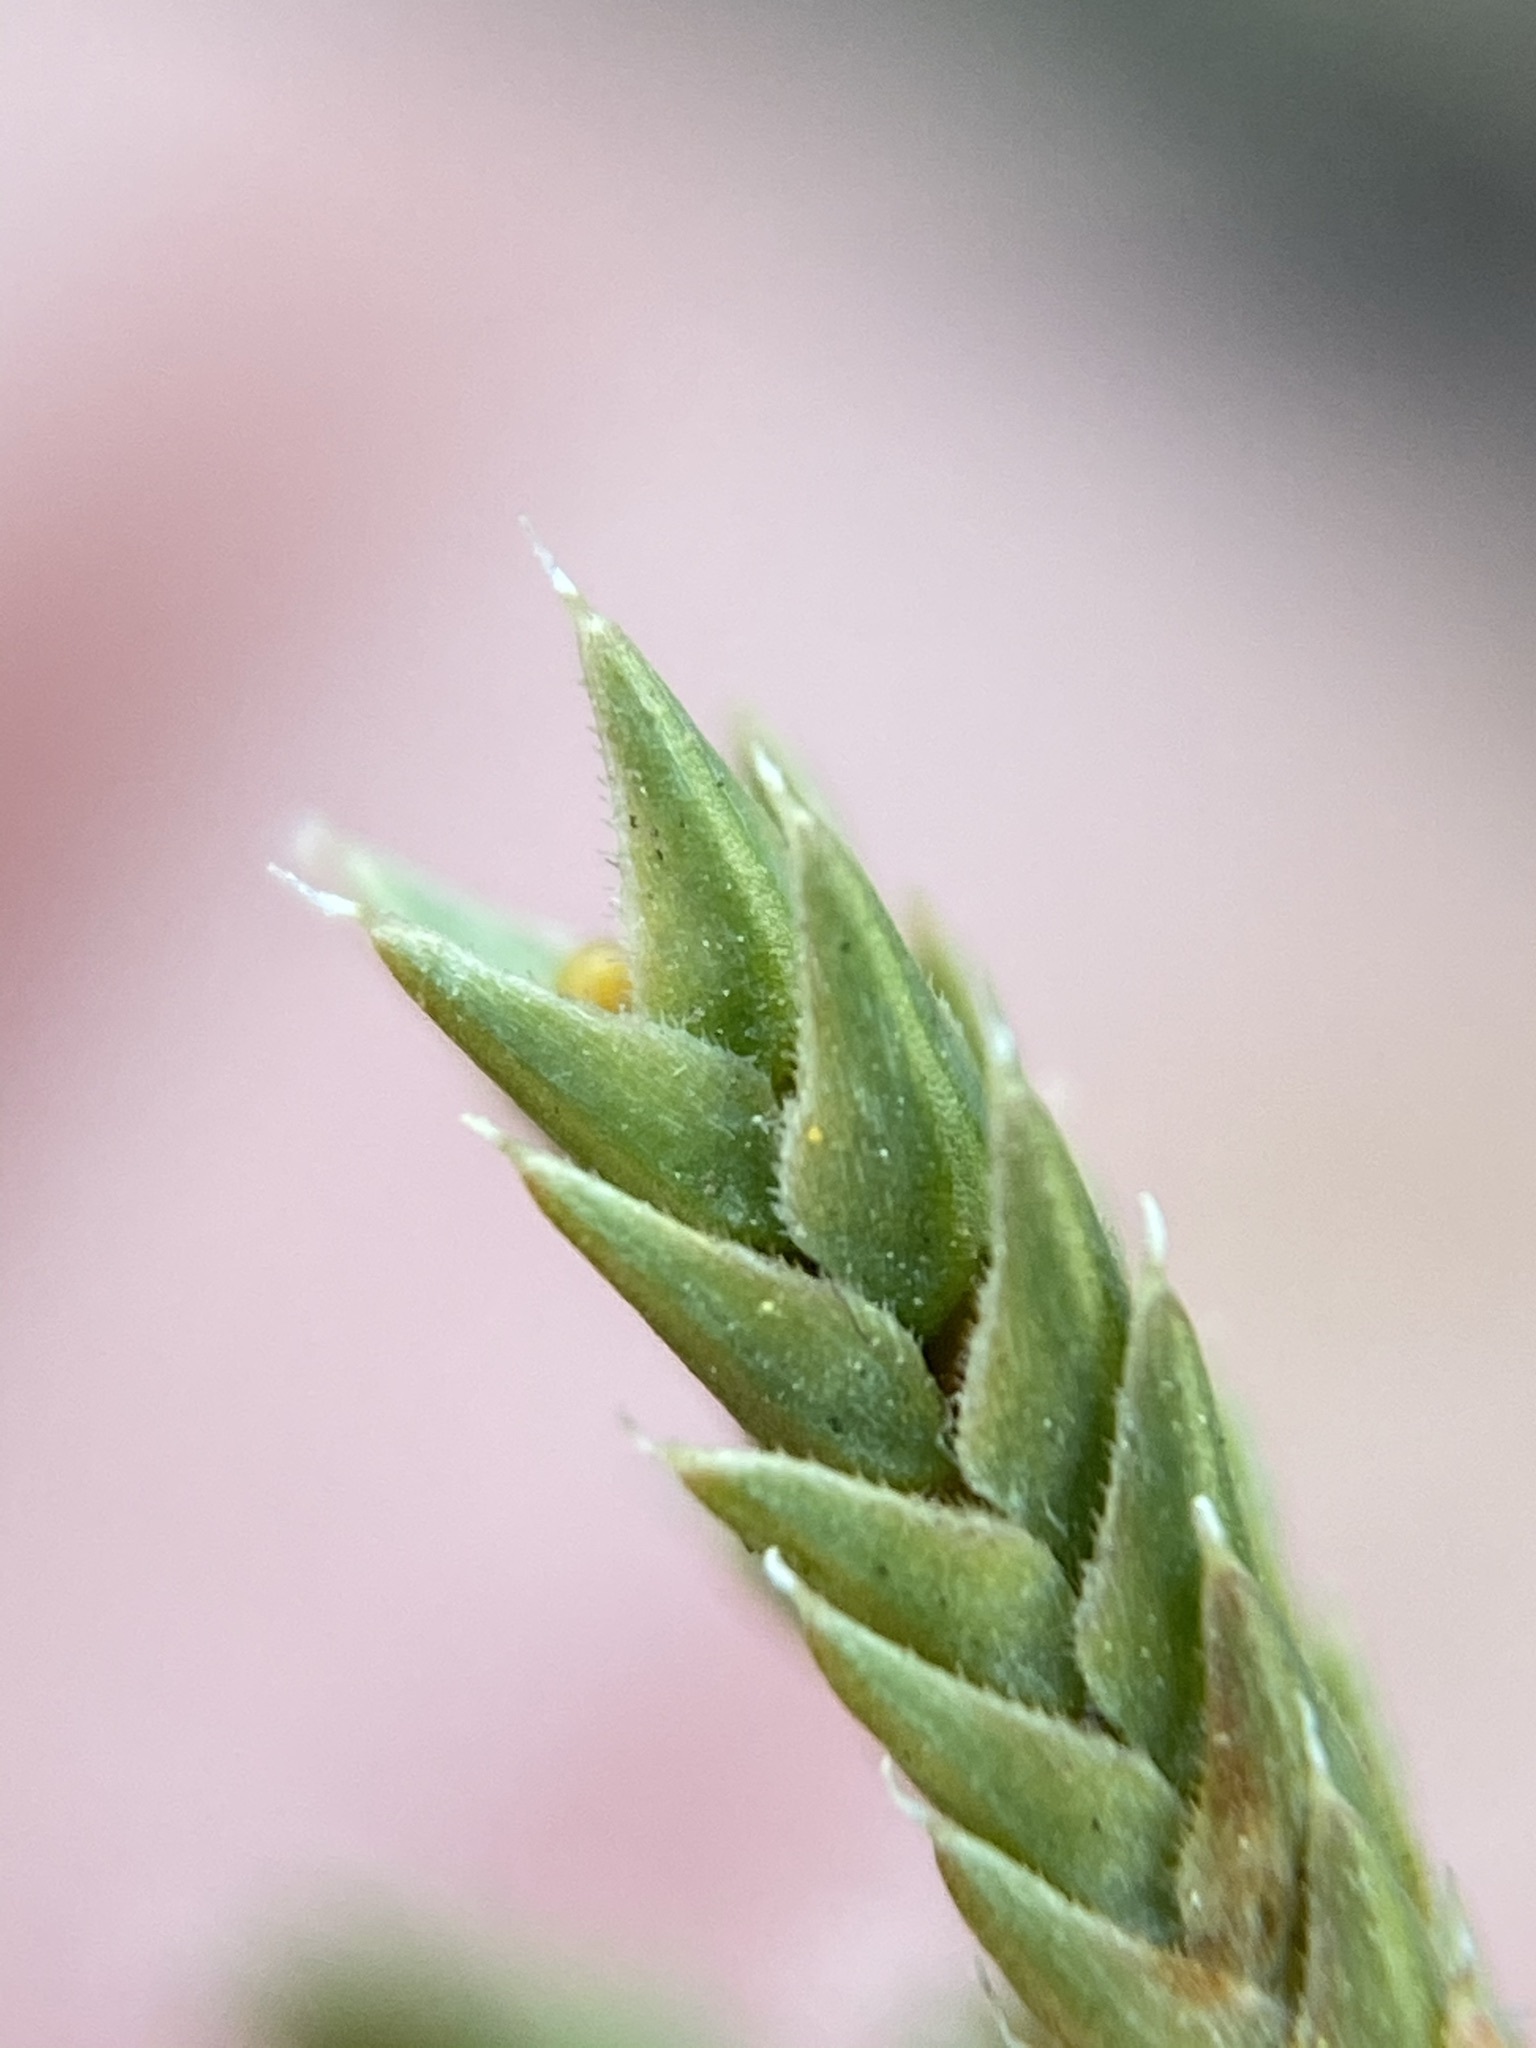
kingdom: Plantae
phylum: Tracheophyta
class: Lycopodiopsida
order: Selaginellales
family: Selaginellaceae
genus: Selaginella
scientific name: Selaginella peruviana
